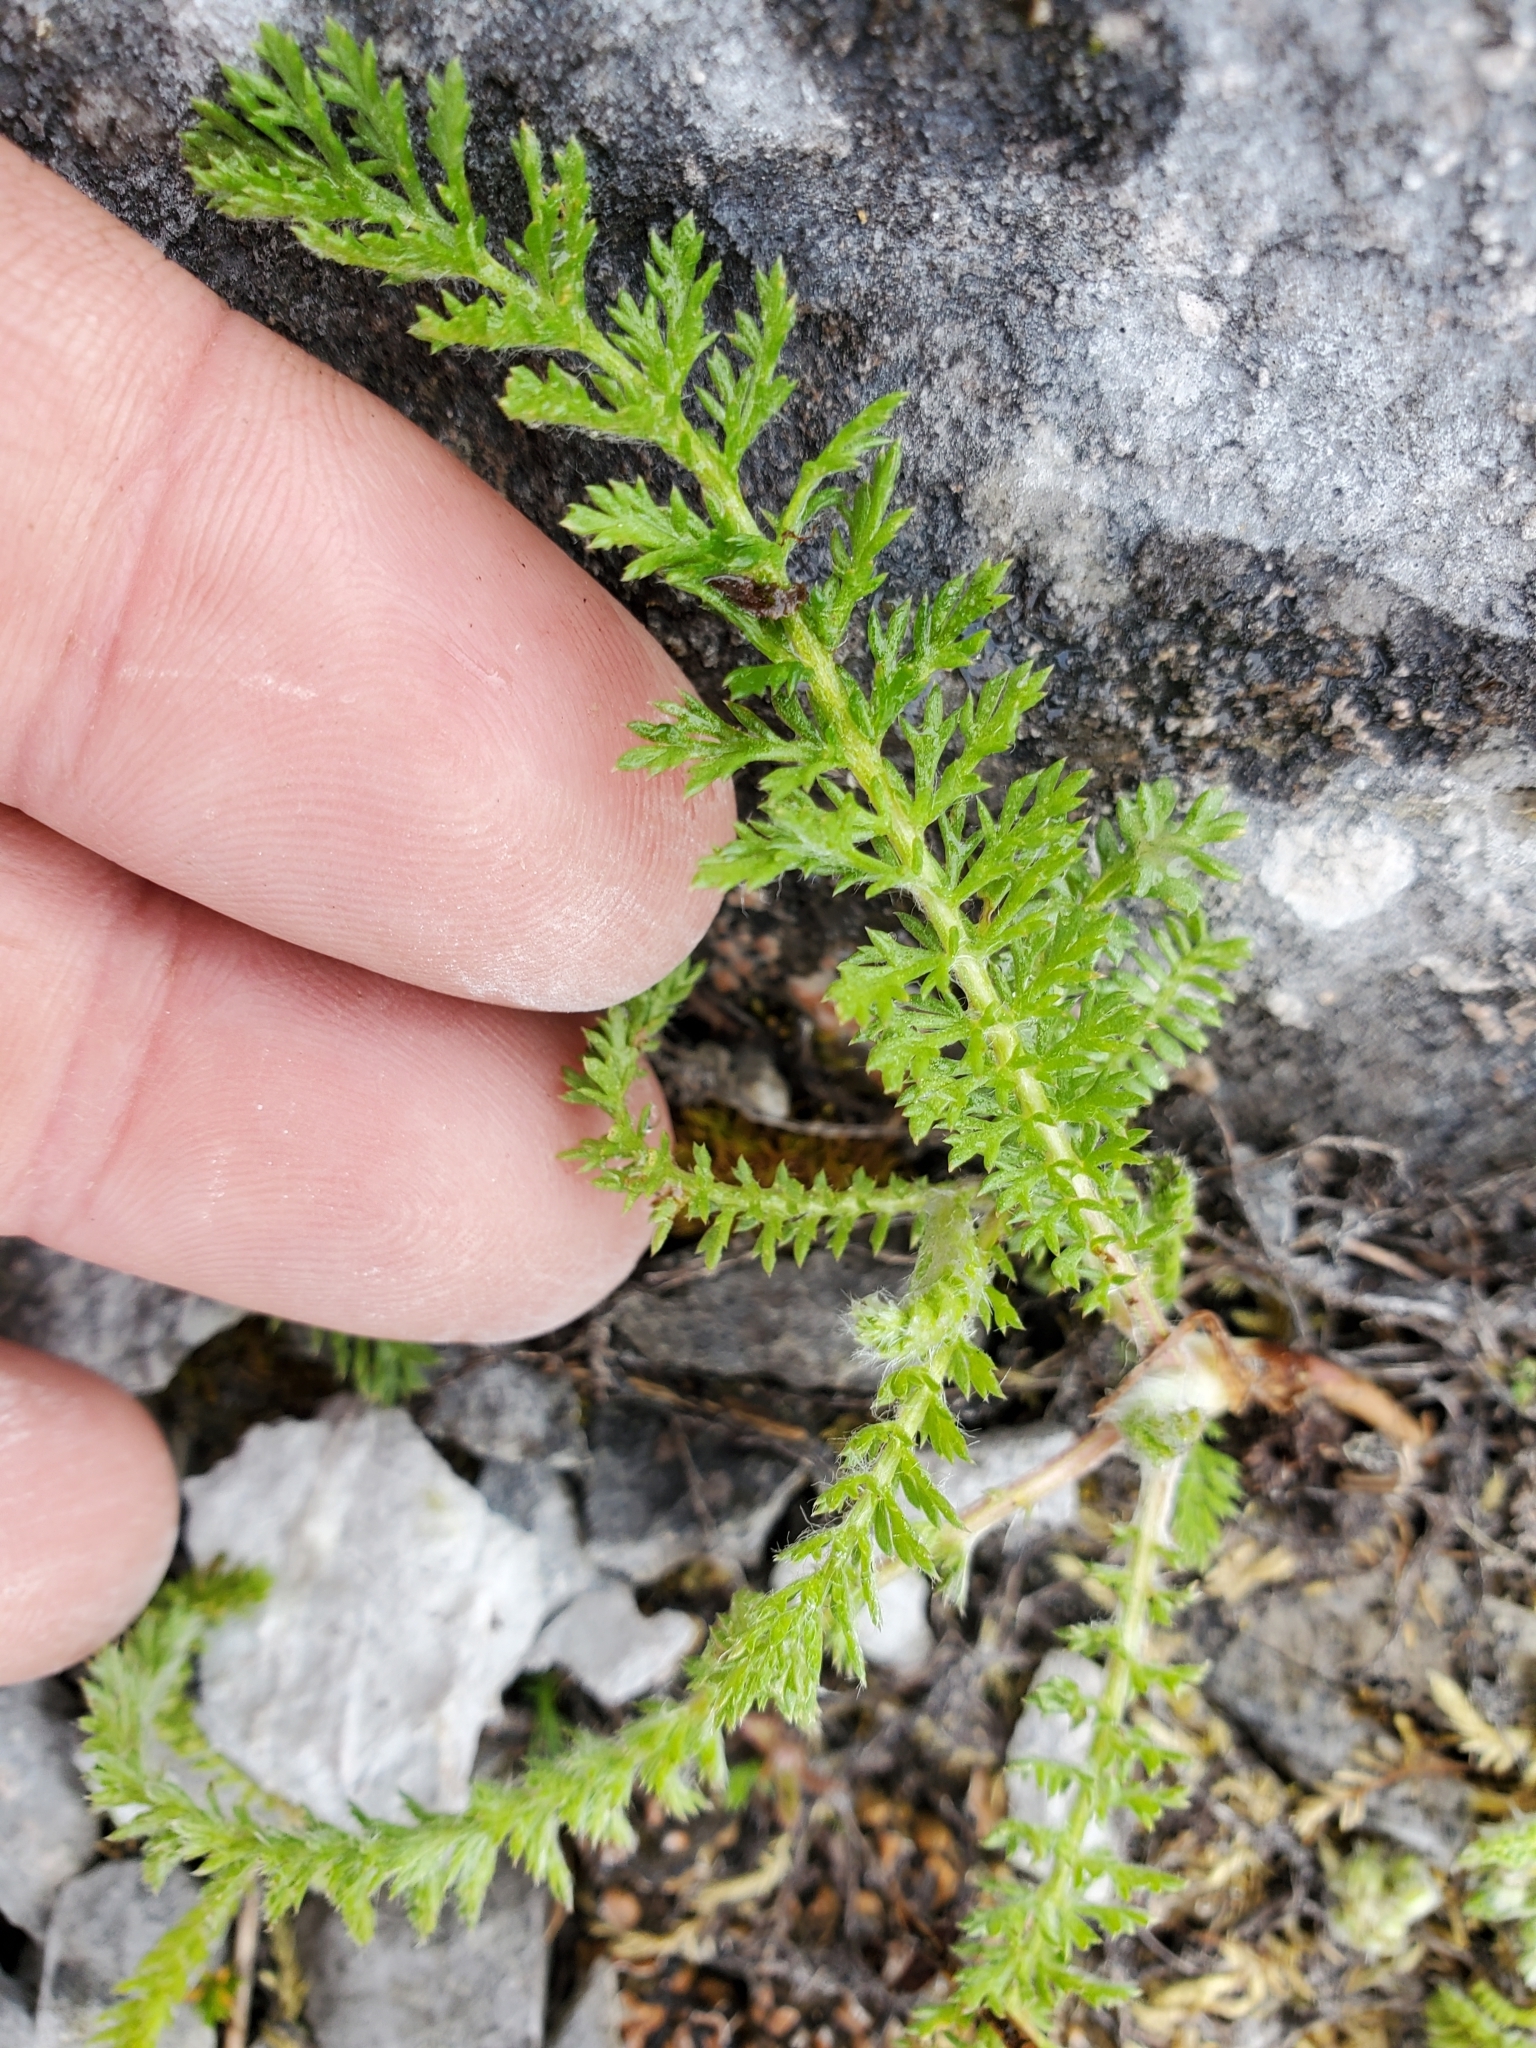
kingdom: Plantae
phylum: Tracheophyta
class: Magnoliopsida
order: Asterales
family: Asteraceae
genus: Achillea
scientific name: Achillea millefolium
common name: Yarrow
